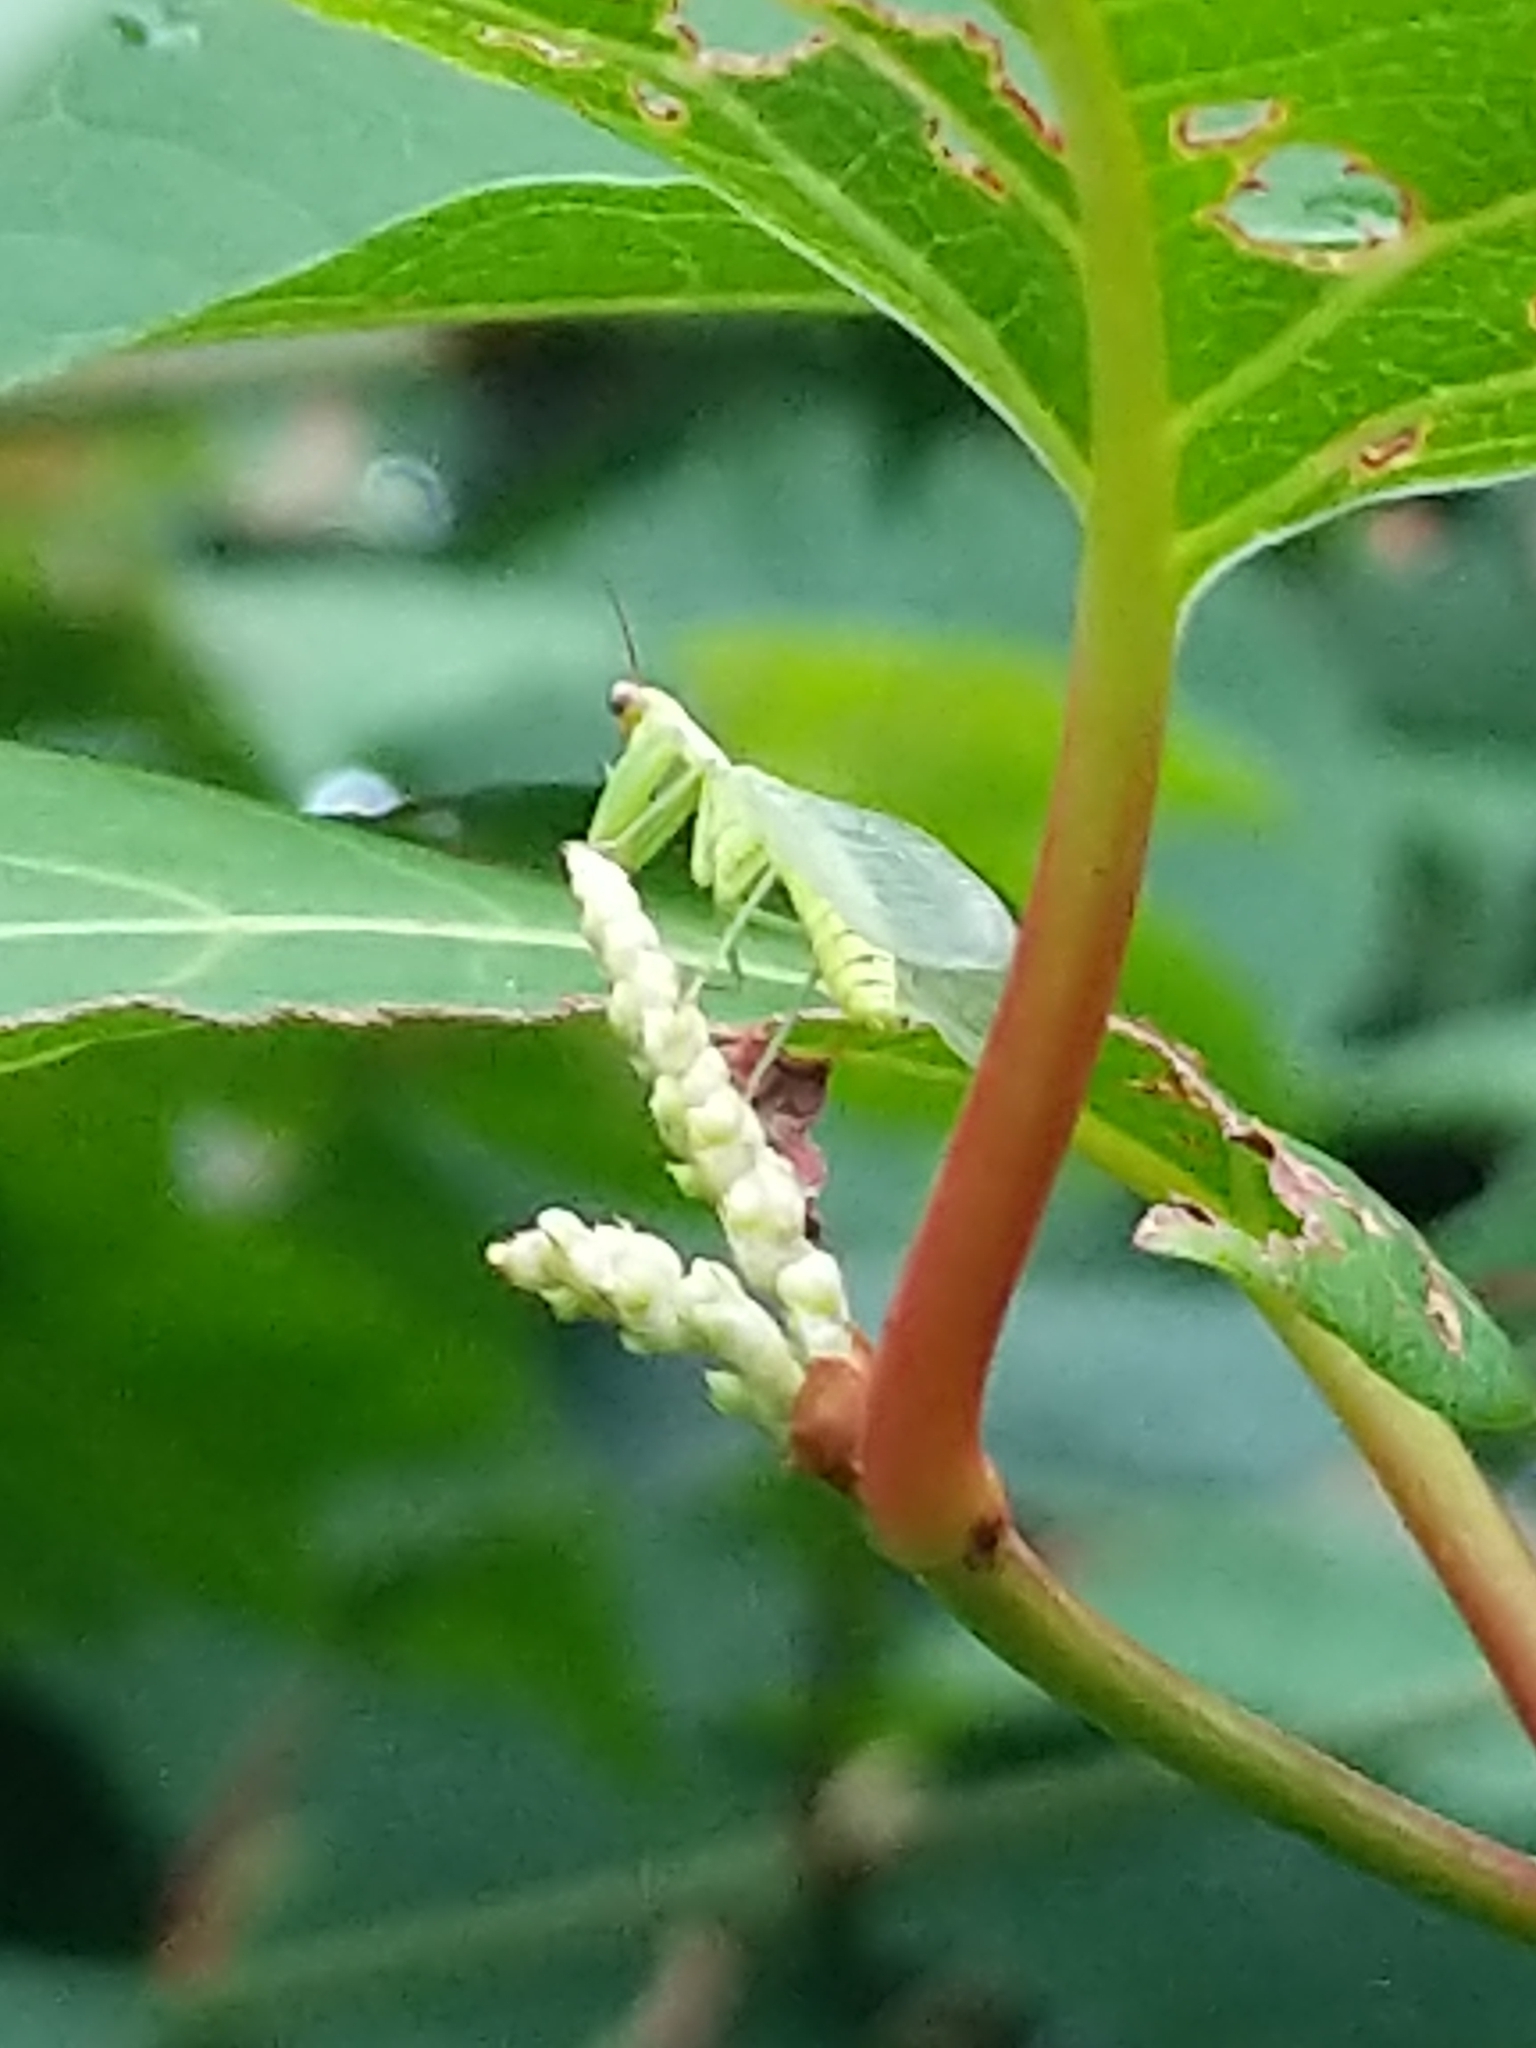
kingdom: Animalia
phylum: Arthropoda
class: Insecta
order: Neuroptera
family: Mantispidae
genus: Zeugomantispa
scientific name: Zeugomantispa minuta
